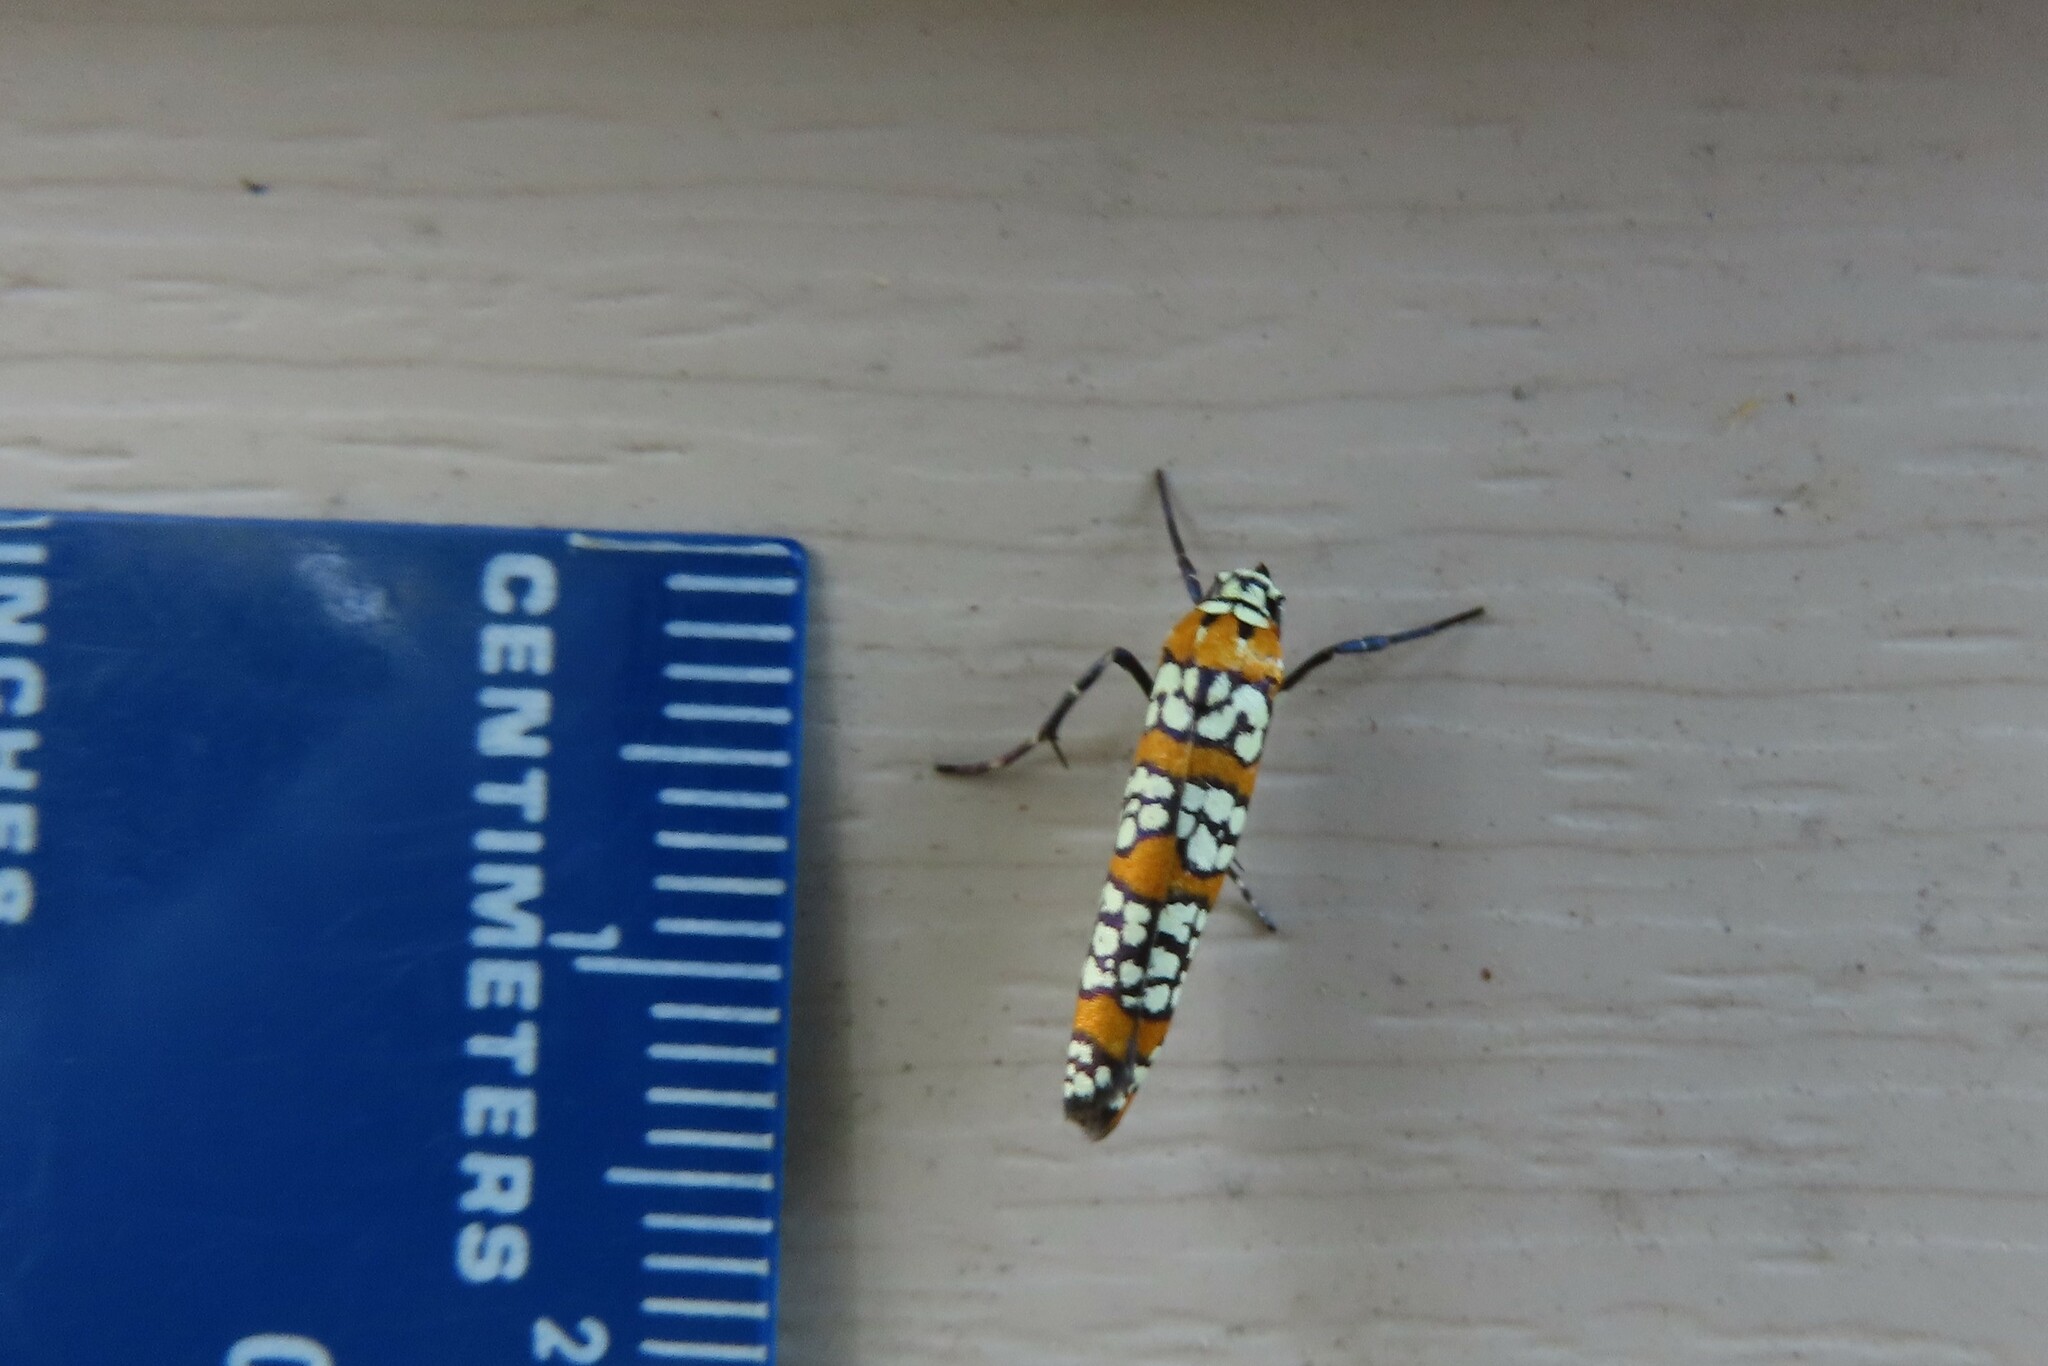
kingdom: Animalia
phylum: Arthropoda
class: Insecta
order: Lepidoptera
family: Attevidae
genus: Atteva
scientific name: Atteva punctella
